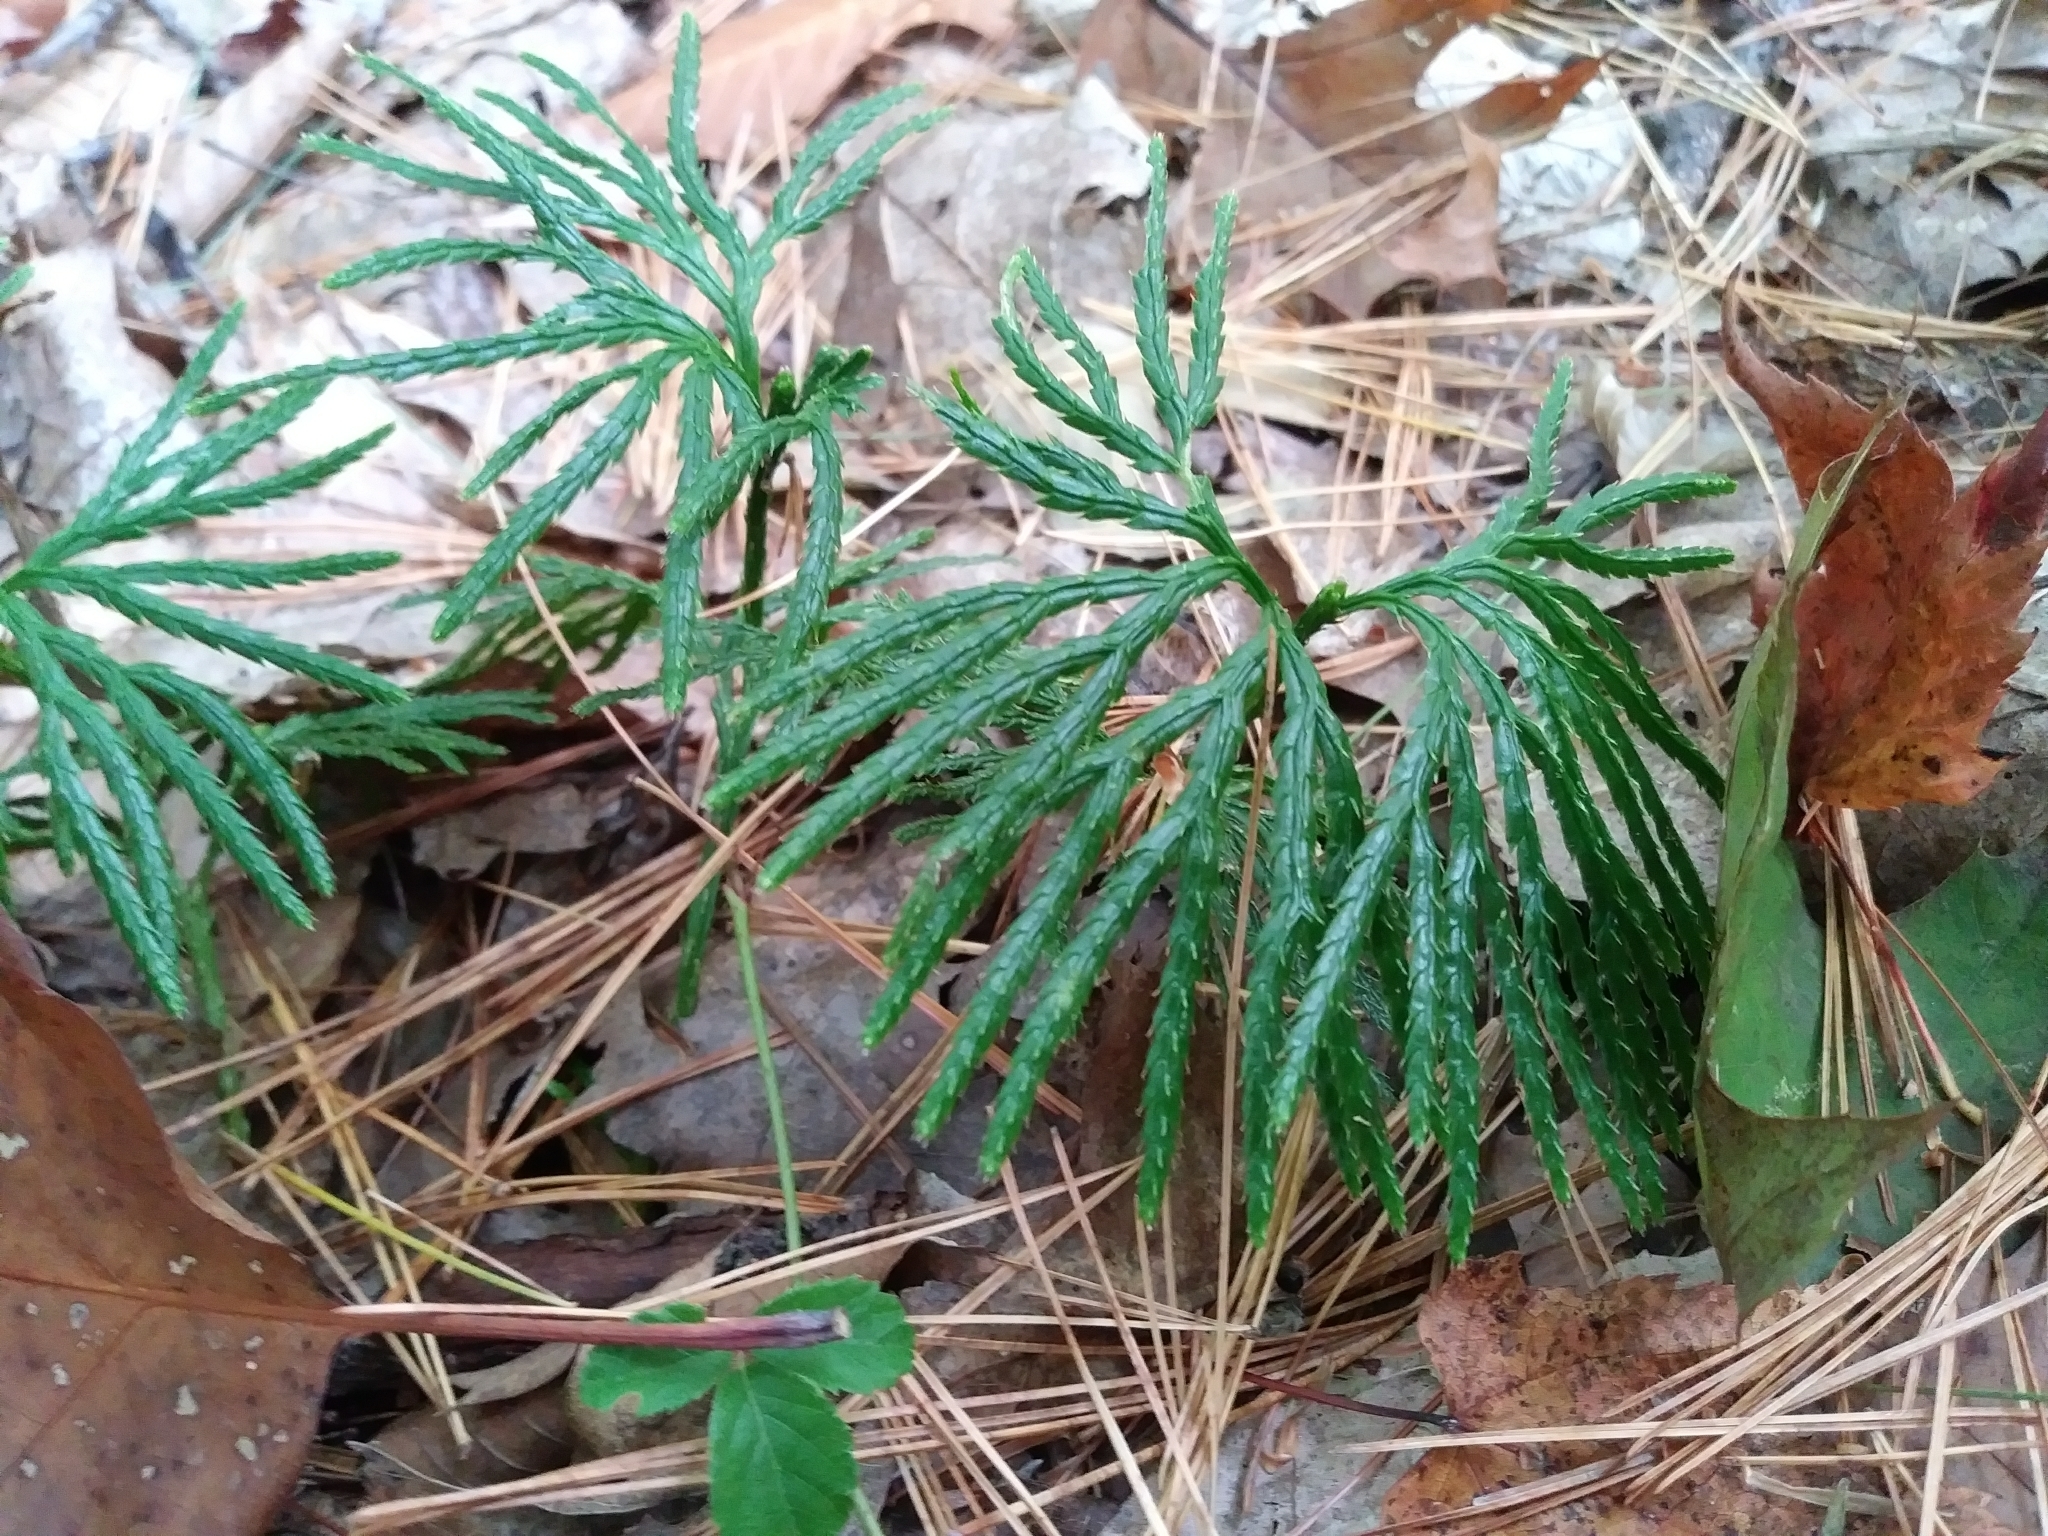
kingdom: Plantae
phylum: Tracheophyta
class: Lycopodiopsida
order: Lycopodiales
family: Lycopodiaceae
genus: Dendrolycopodium
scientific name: Dendrolycopodium obscurum
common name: Common ground-pine
